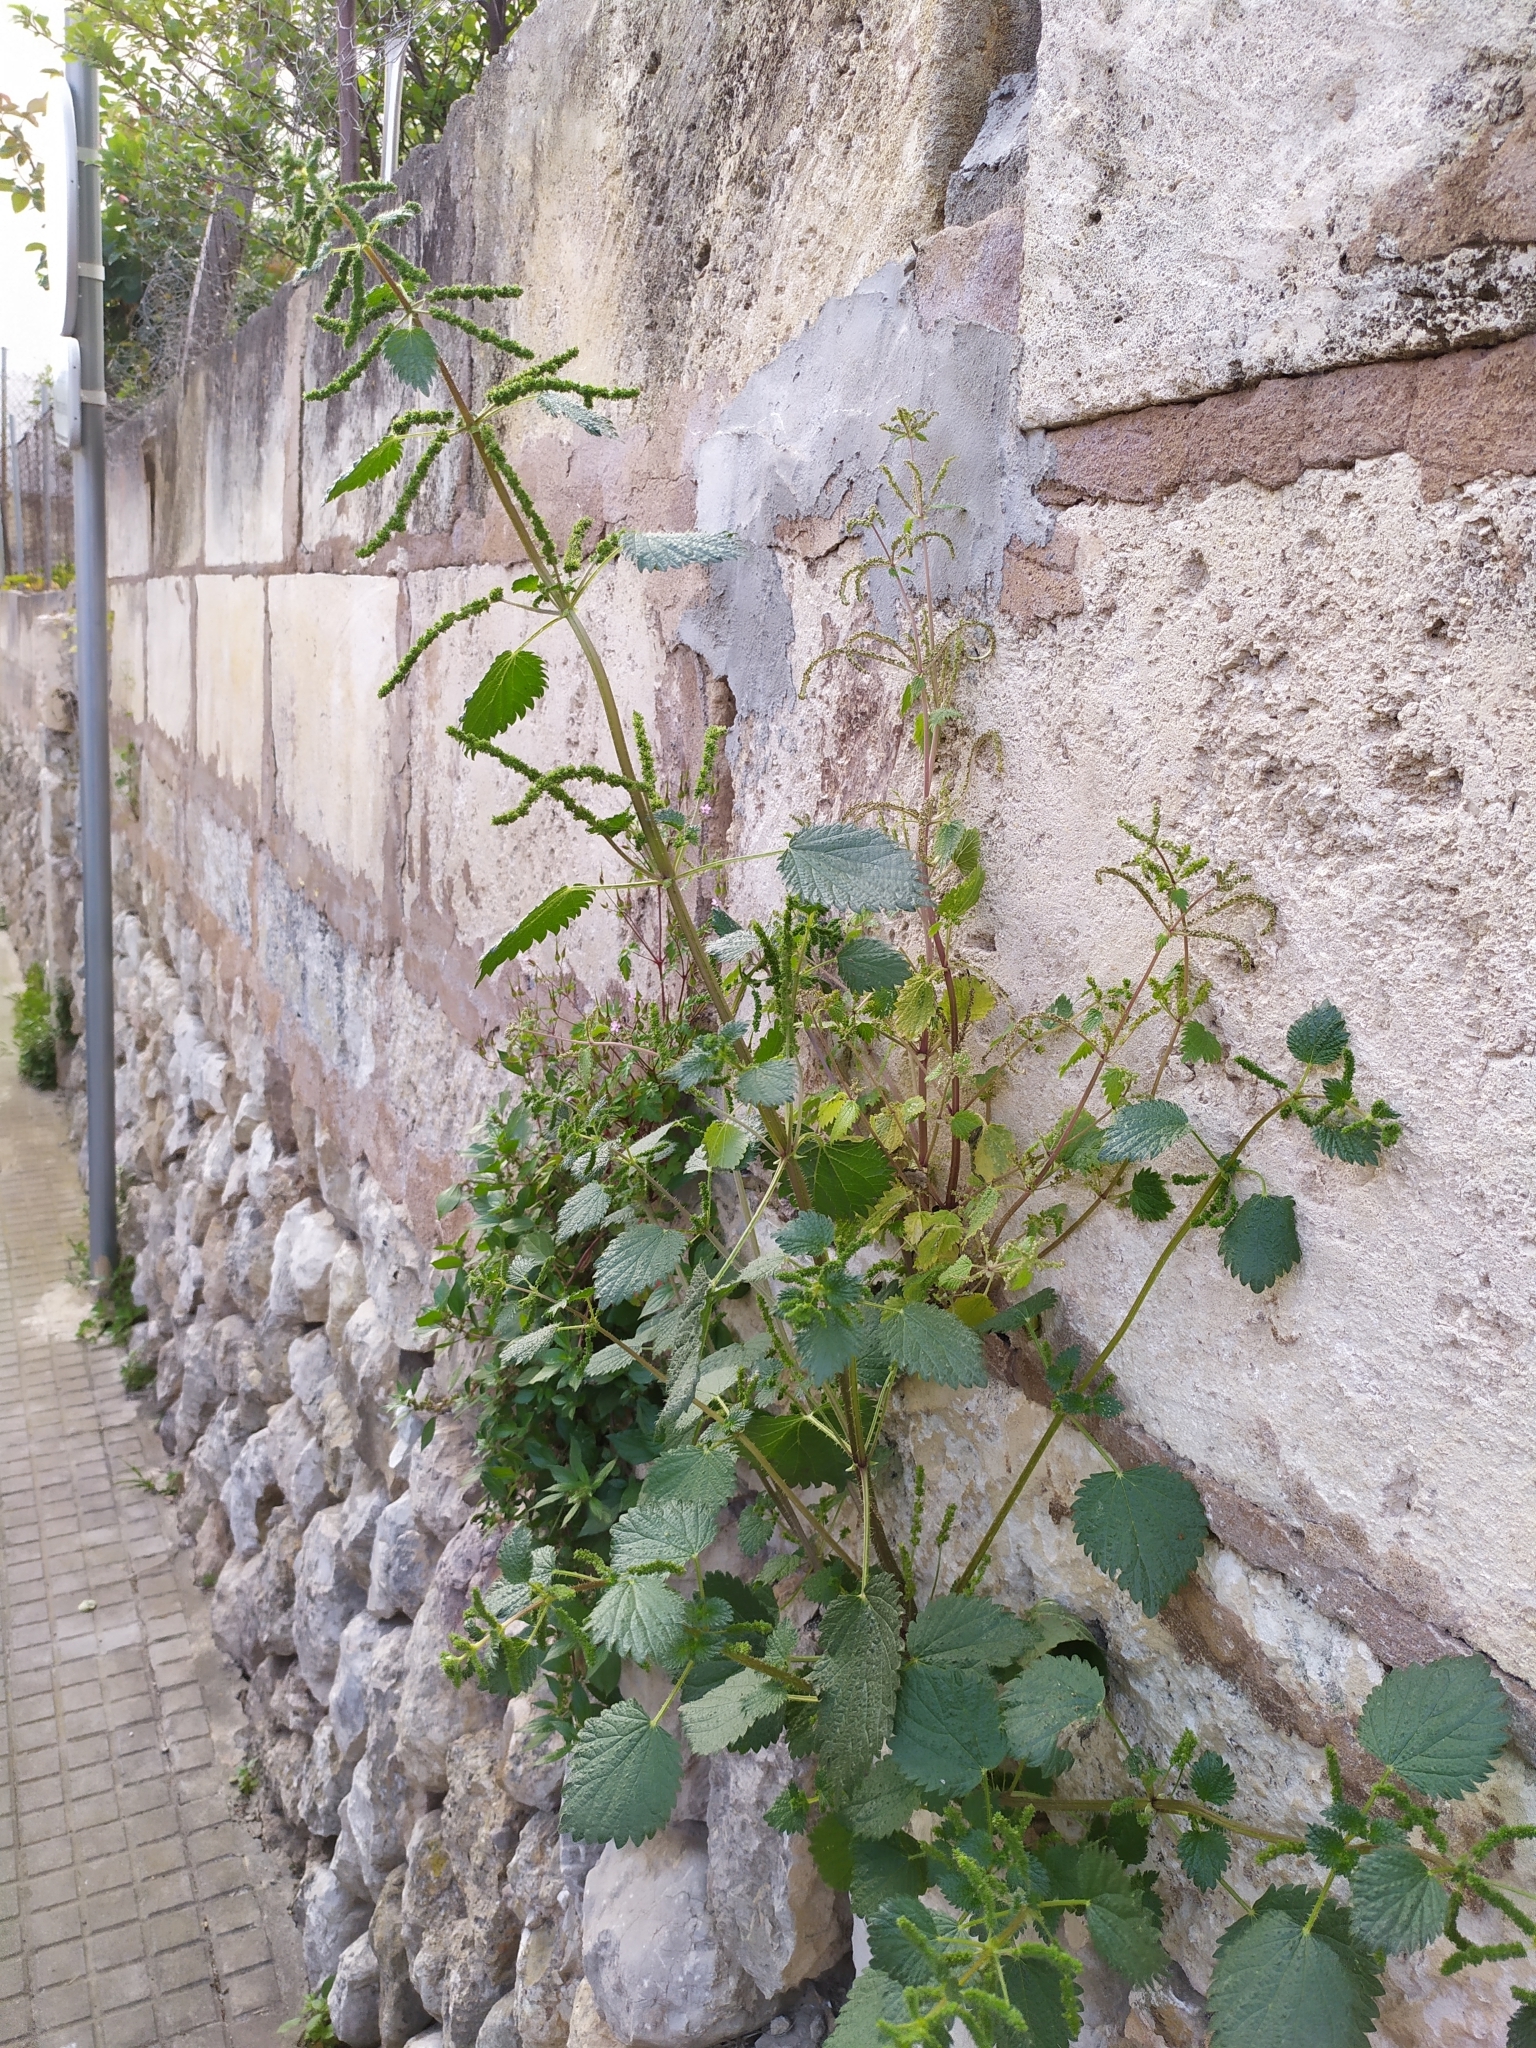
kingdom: Plantae
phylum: Tracheophyta
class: Magnoliopsida
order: Rosales
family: Urticaceae
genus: Urtica
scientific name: Urtica membranacea
